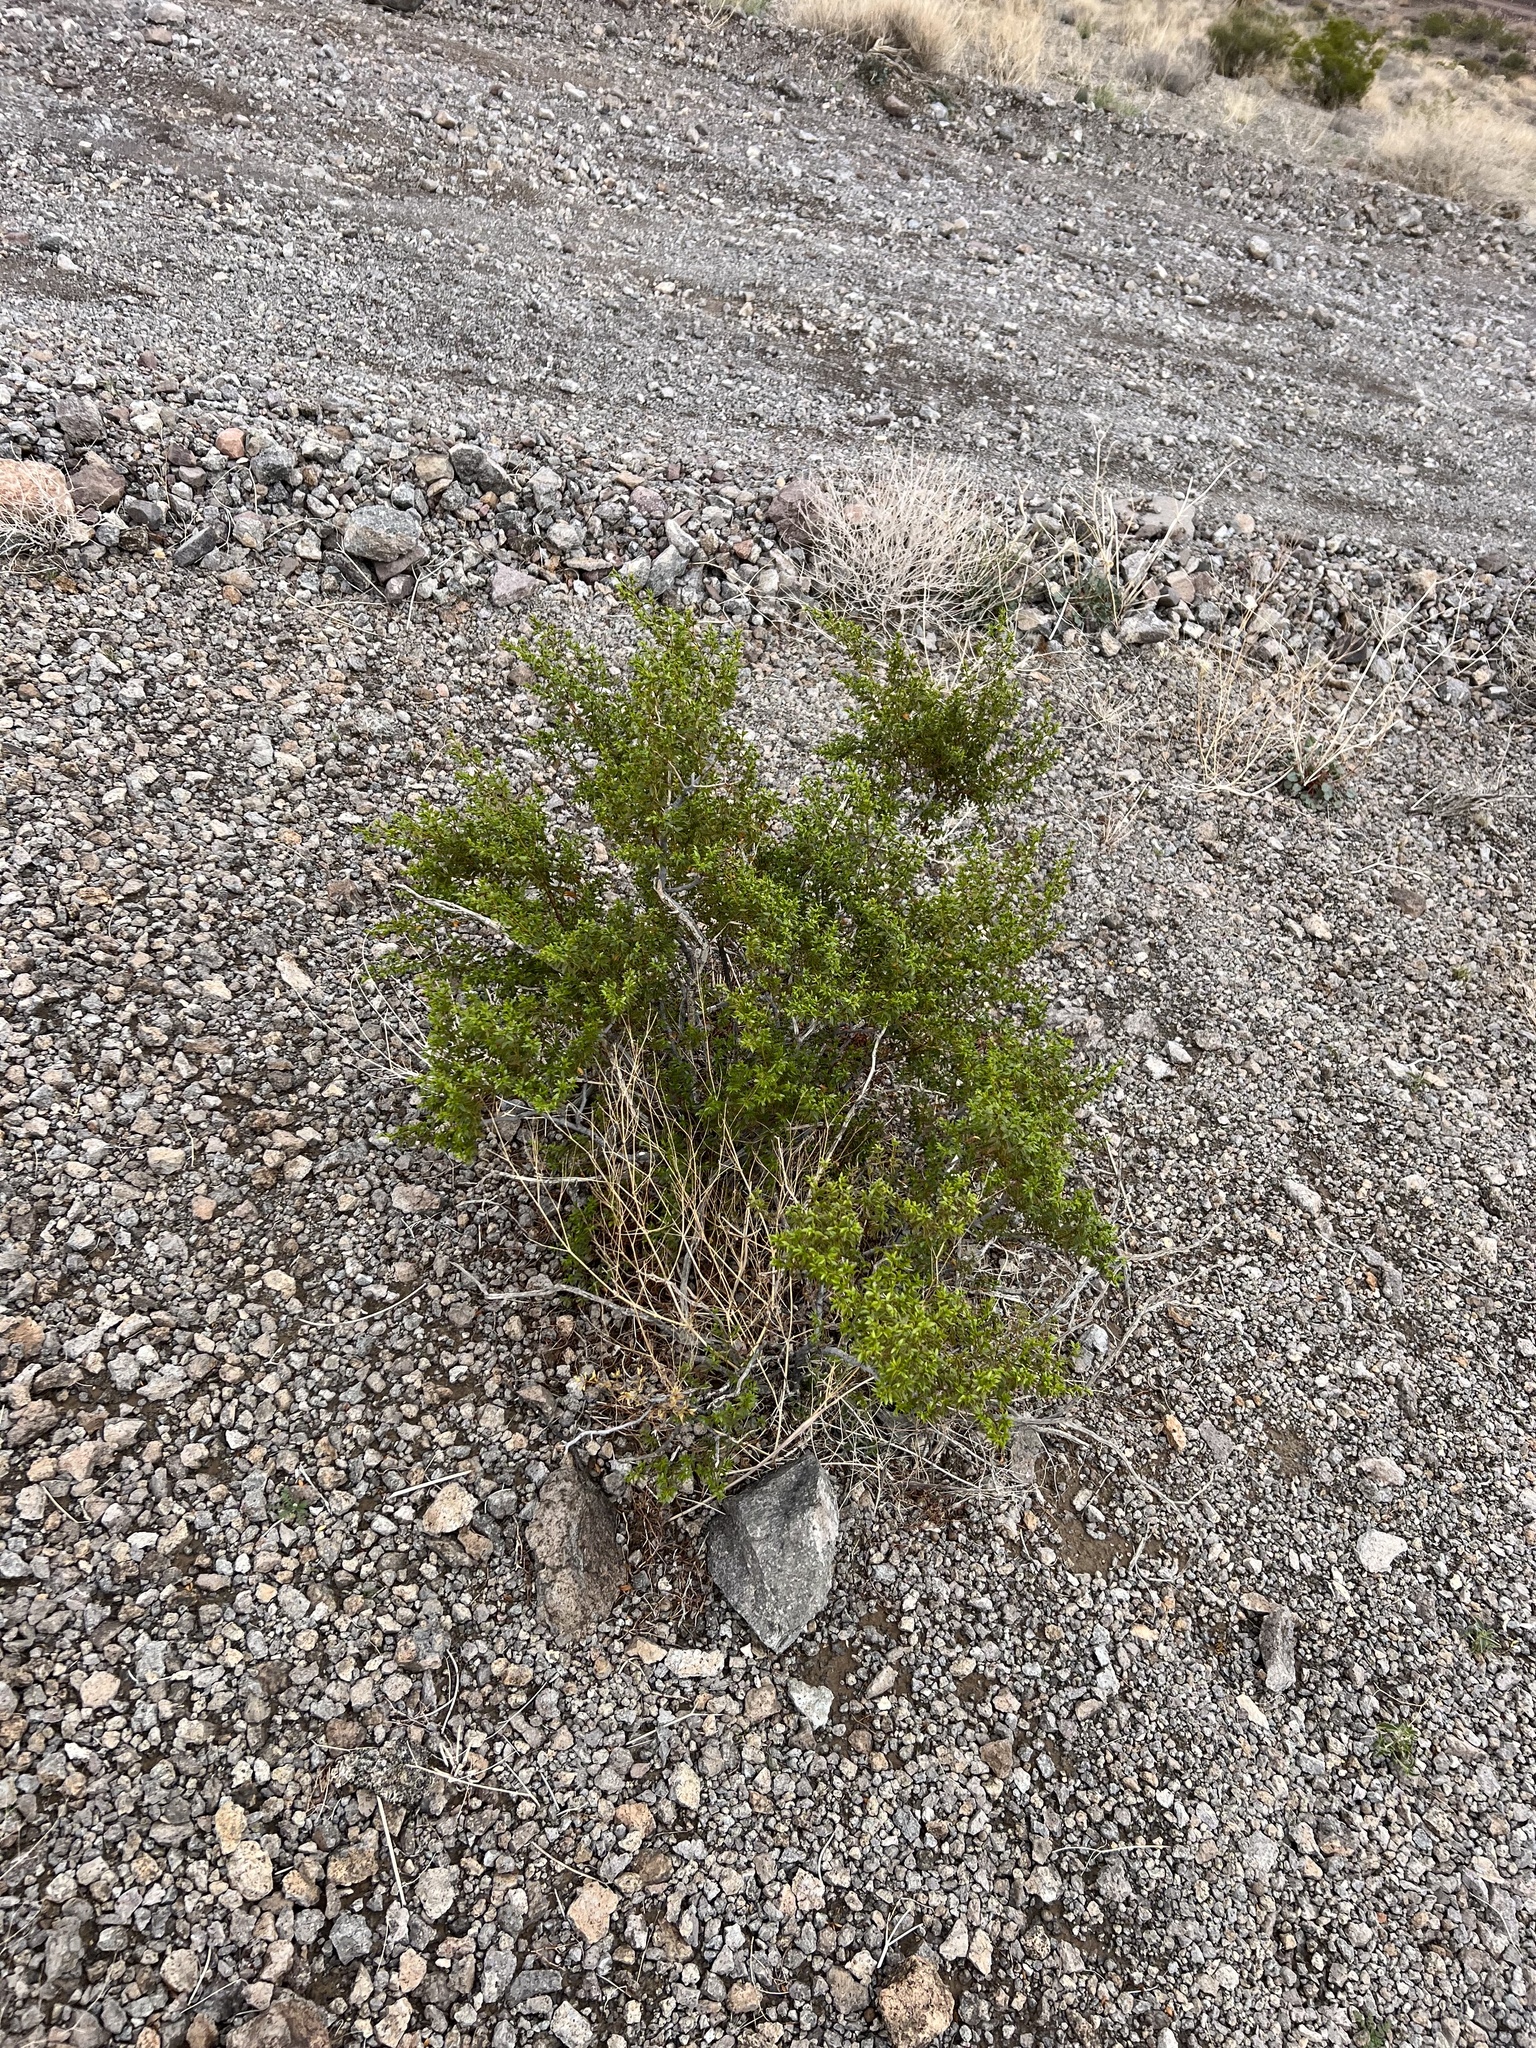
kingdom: Plantae
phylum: Tracheophyta
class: Magnoliopsida
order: Zygophyllales
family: Zygophyllaceae
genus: Larrea
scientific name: Larrea tridentata
